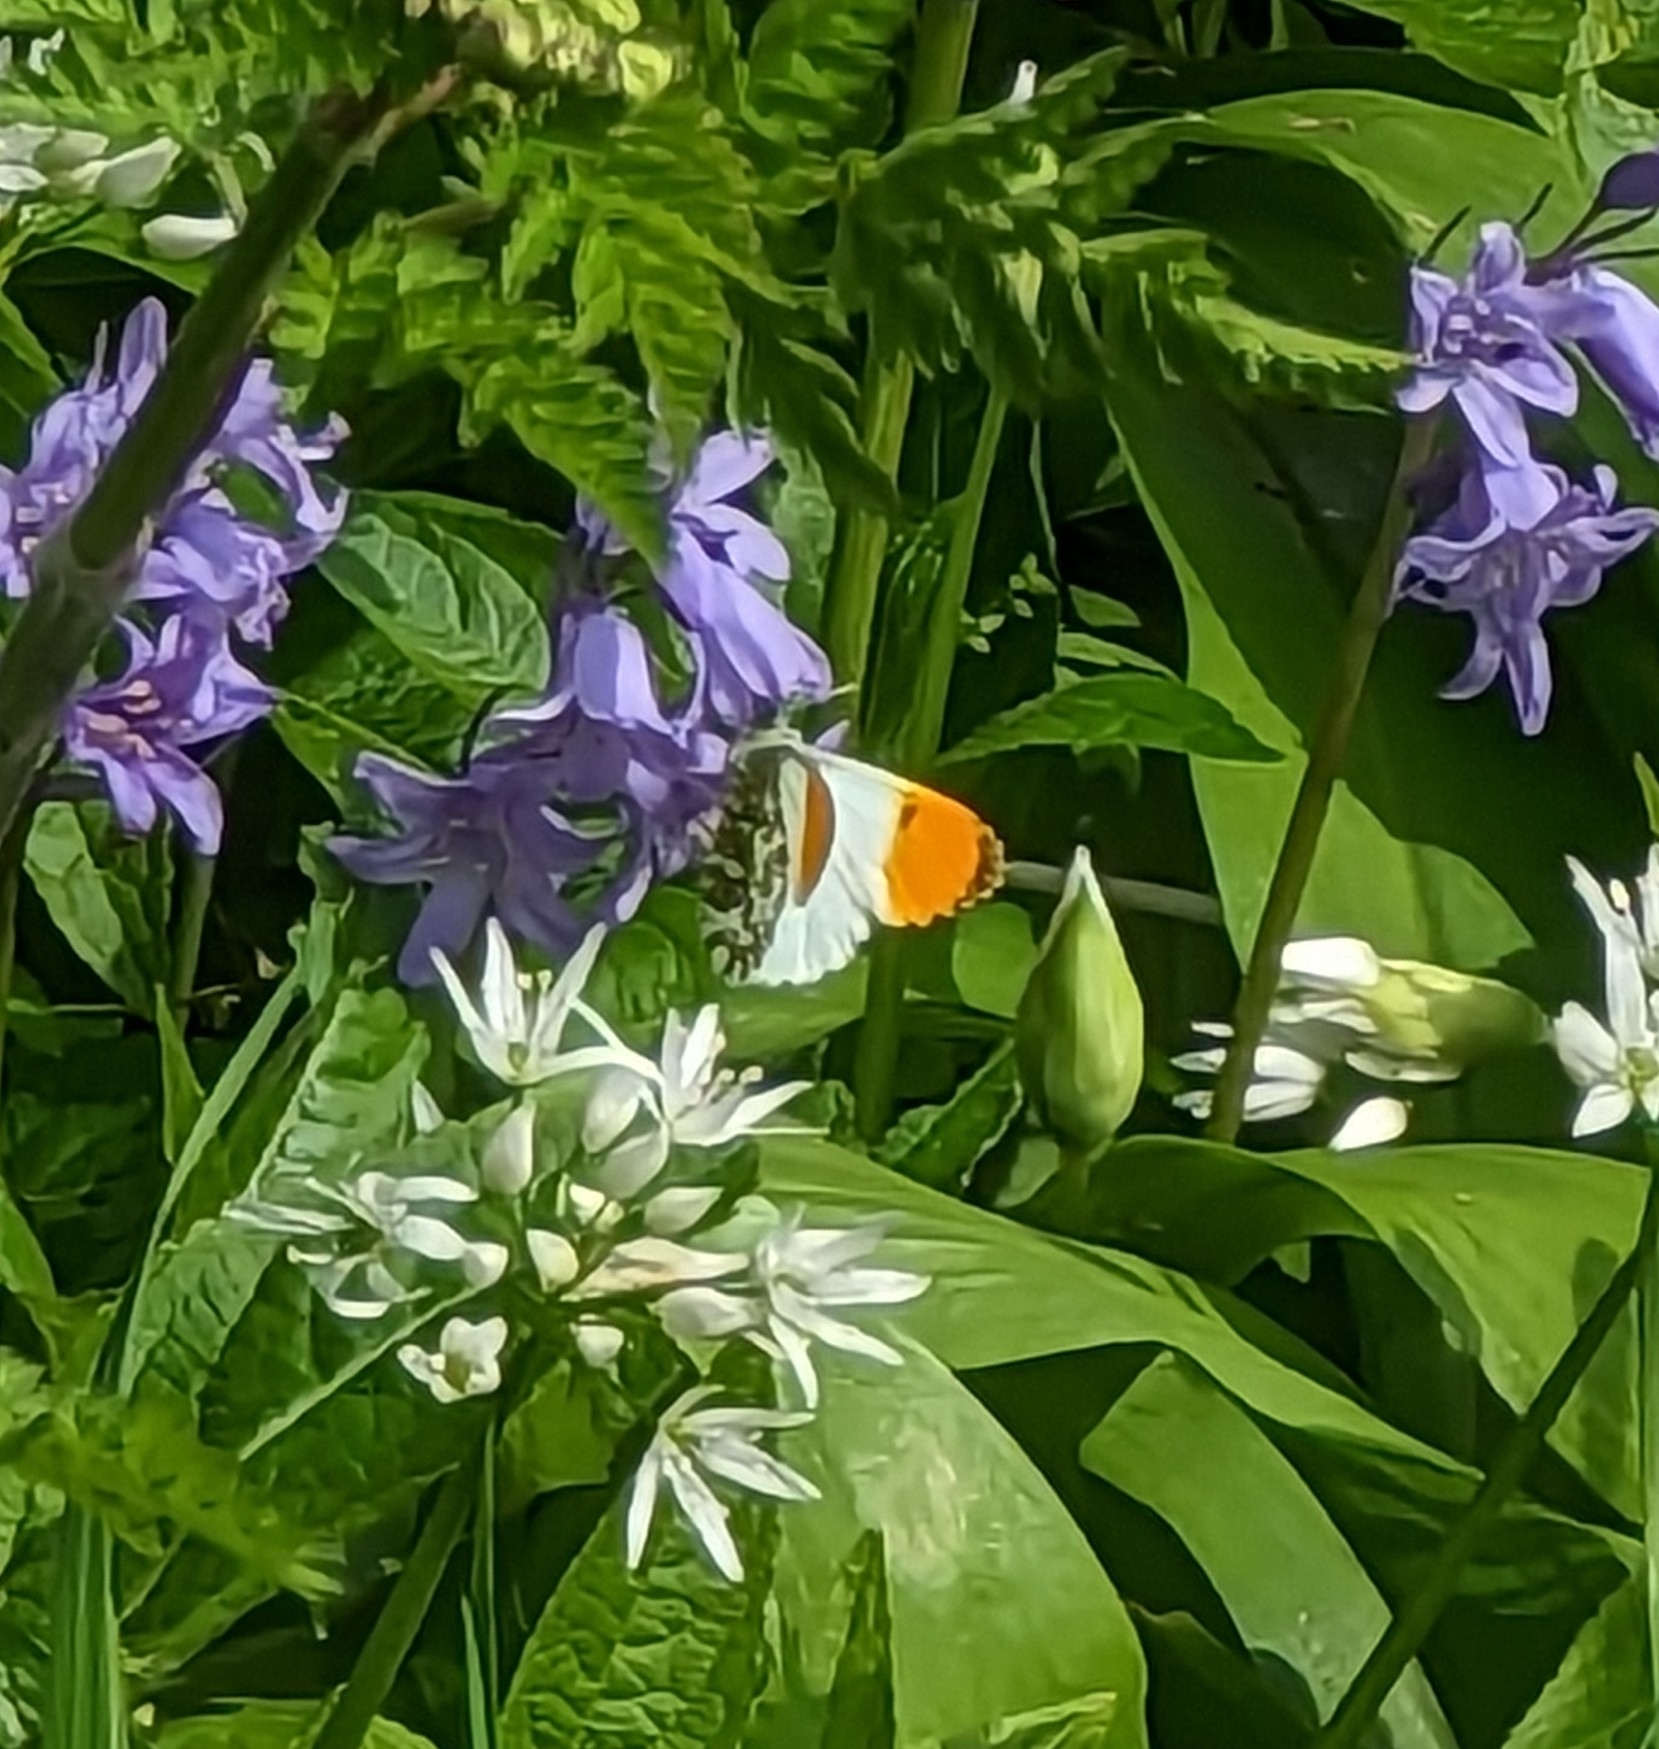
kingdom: Animalia
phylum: Arthropoda
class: Insecta
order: Lepidoptera
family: Pieridae
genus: Anthocharis
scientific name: Anthocharis cardamines
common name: Orange-tip
